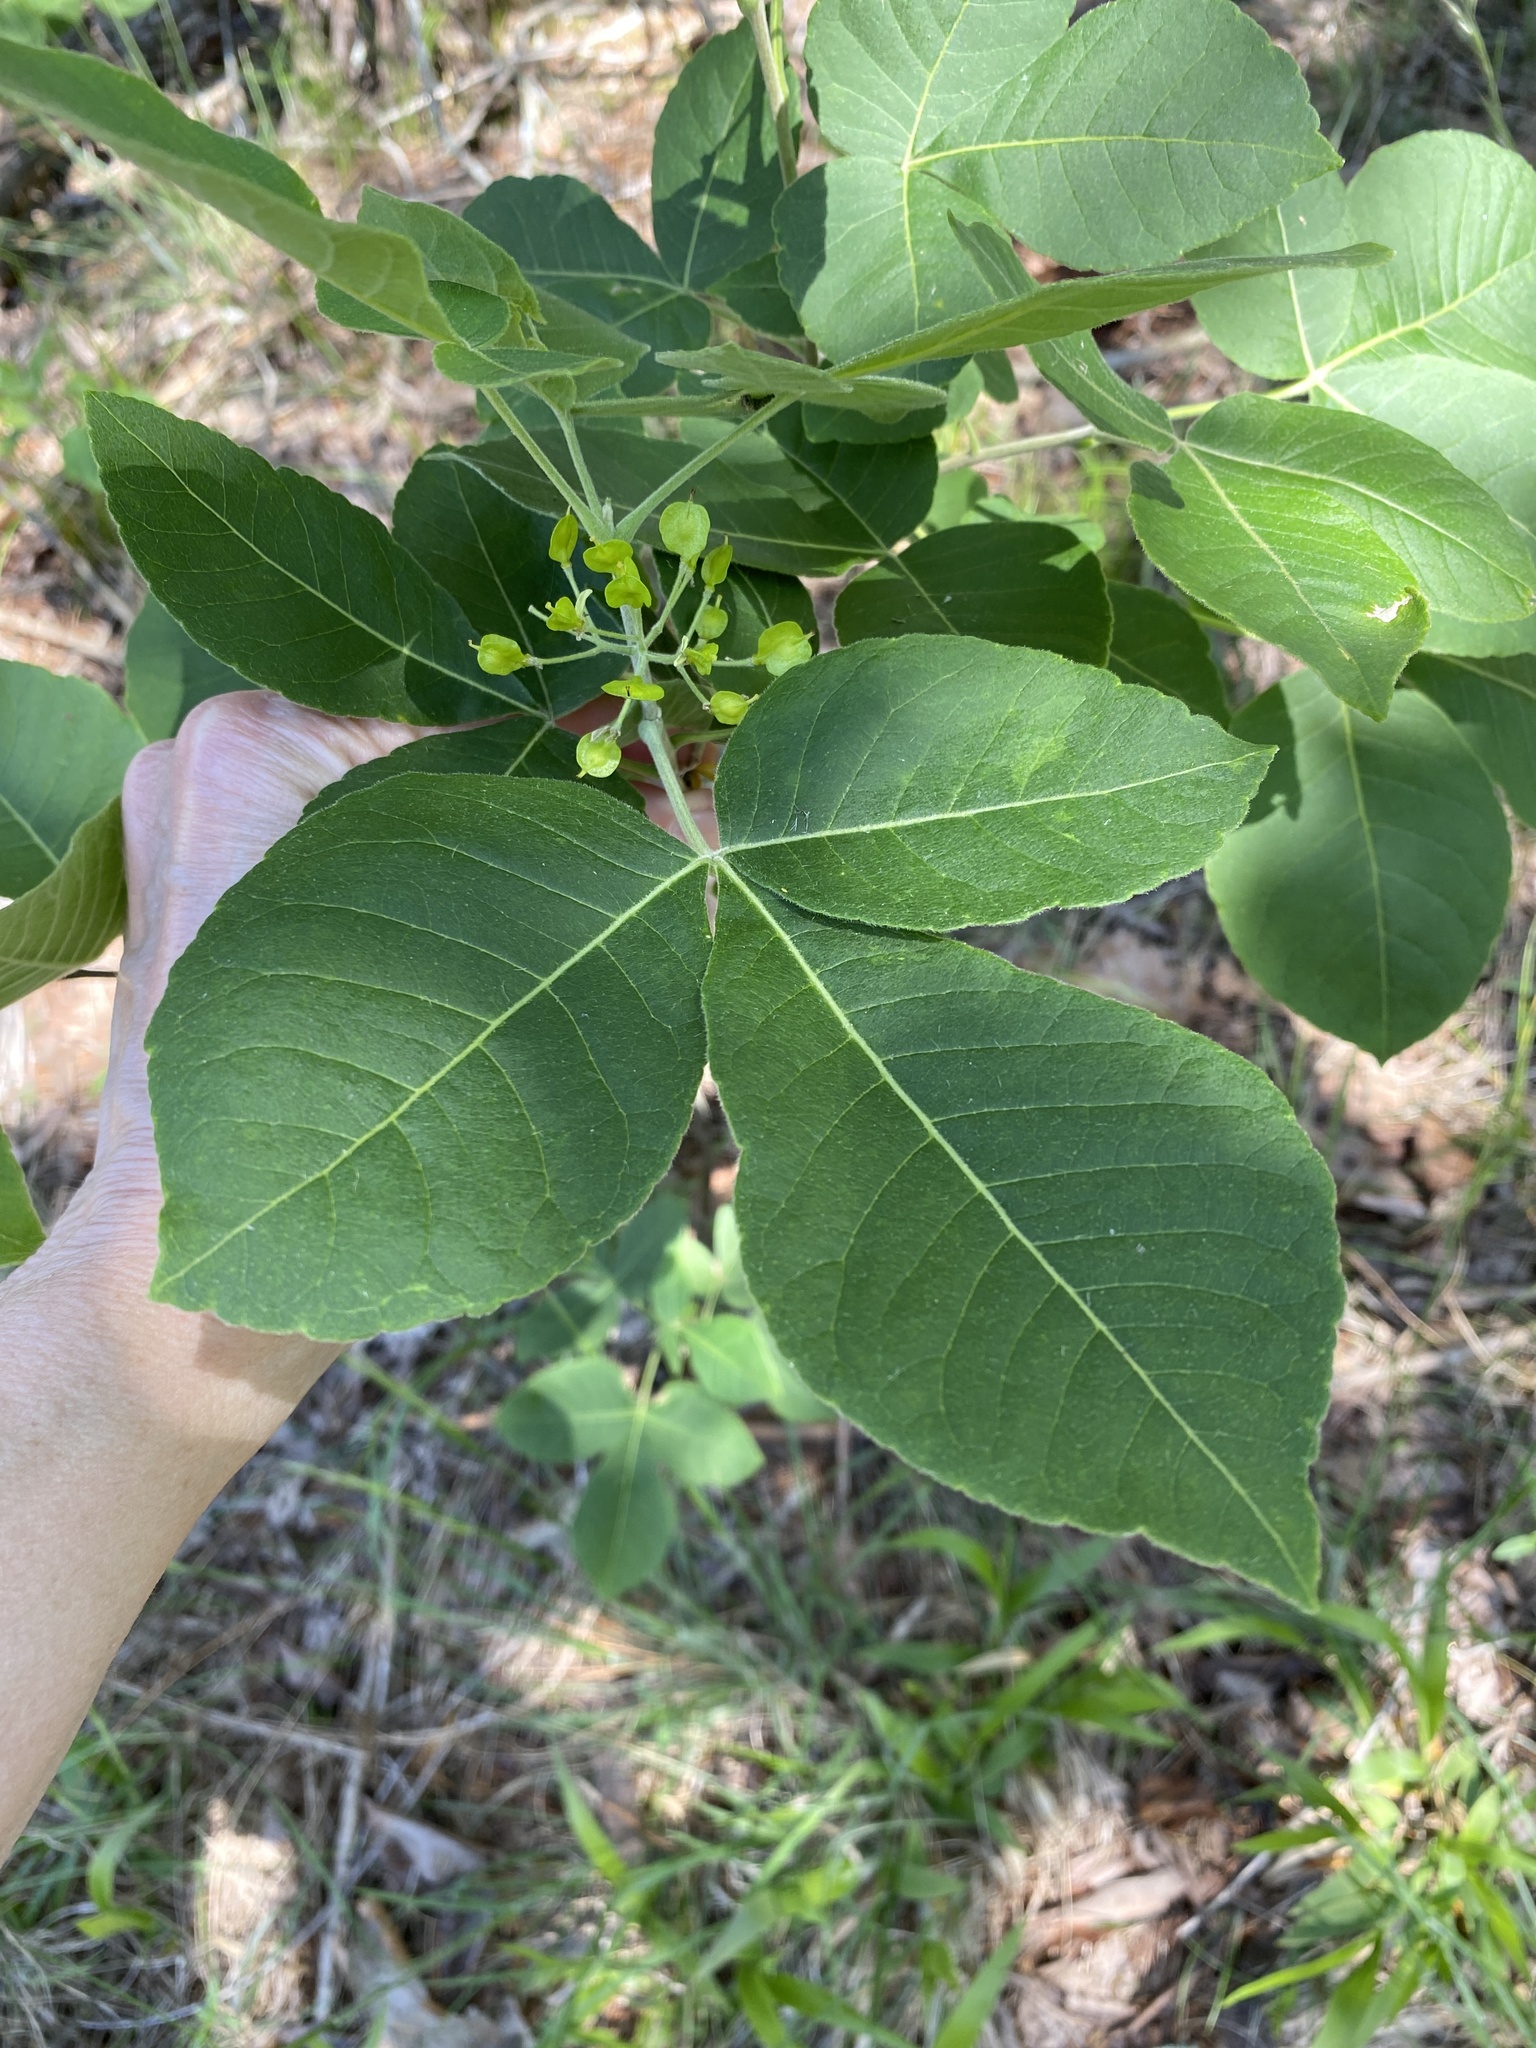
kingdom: Plantae
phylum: Tracheophyta
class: Magnoliopsida
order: Sapindales
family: Rutaceae
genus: Ptelea
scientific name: Ptelea trifoliata
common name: Common hop-tree
